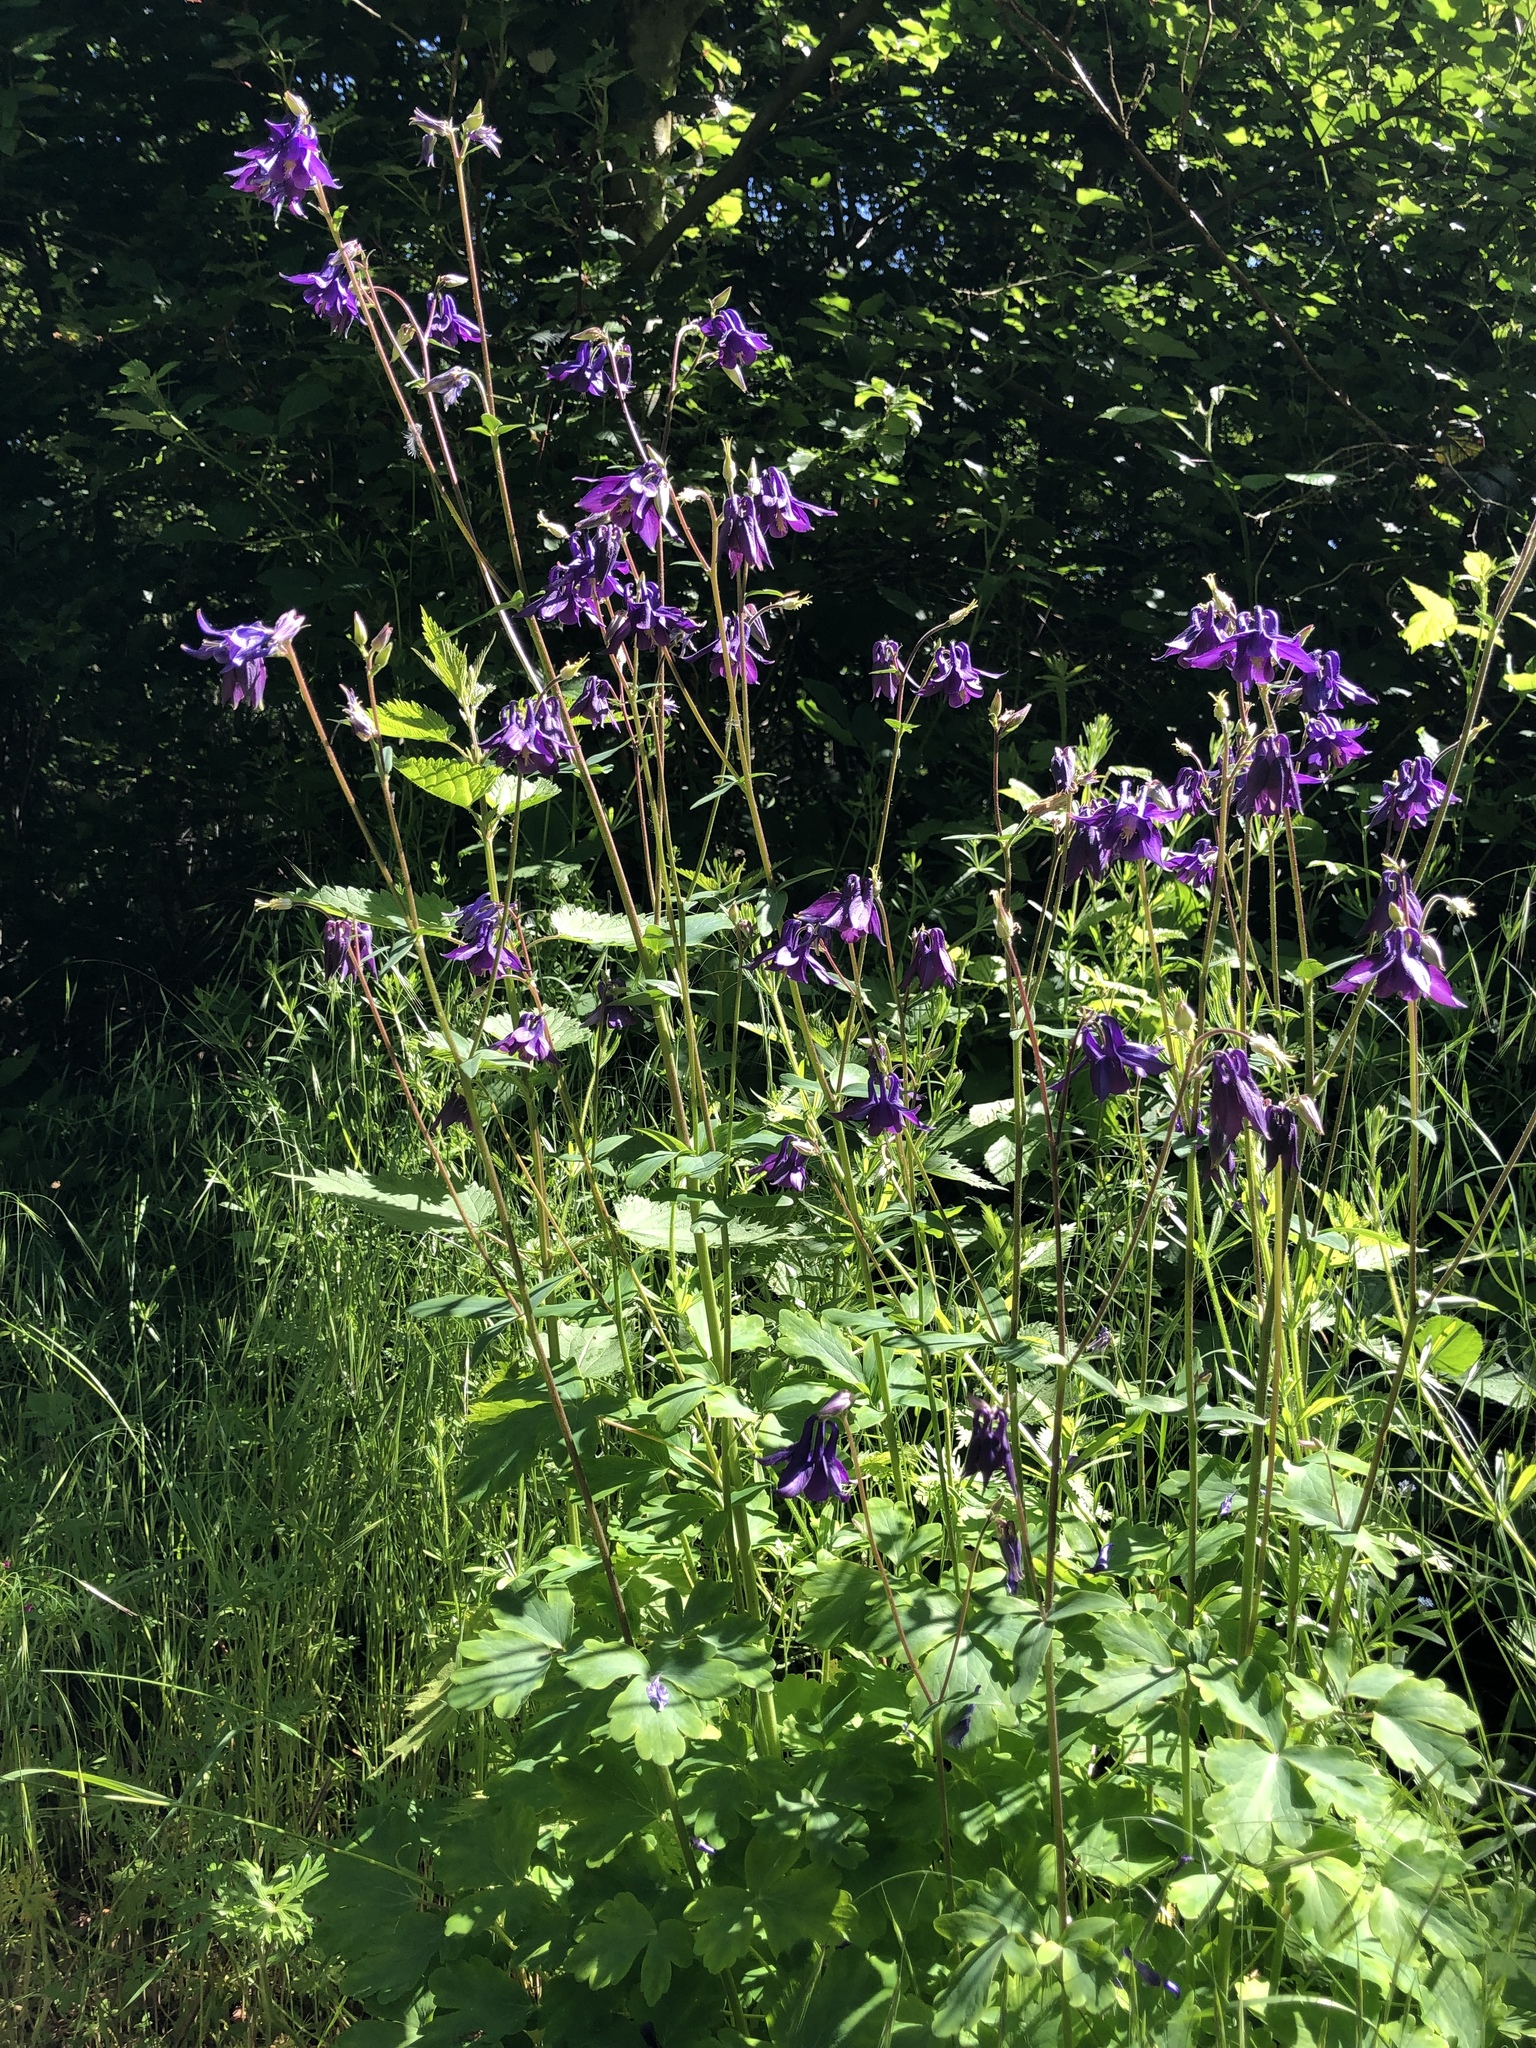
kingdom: Plantae
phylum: Tracheophyta
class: Magnoliopsida
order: Ranunculales
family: Ranunculaceae
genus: Aquilegia
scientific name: Aquilegia vulgaris
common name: Columbine
